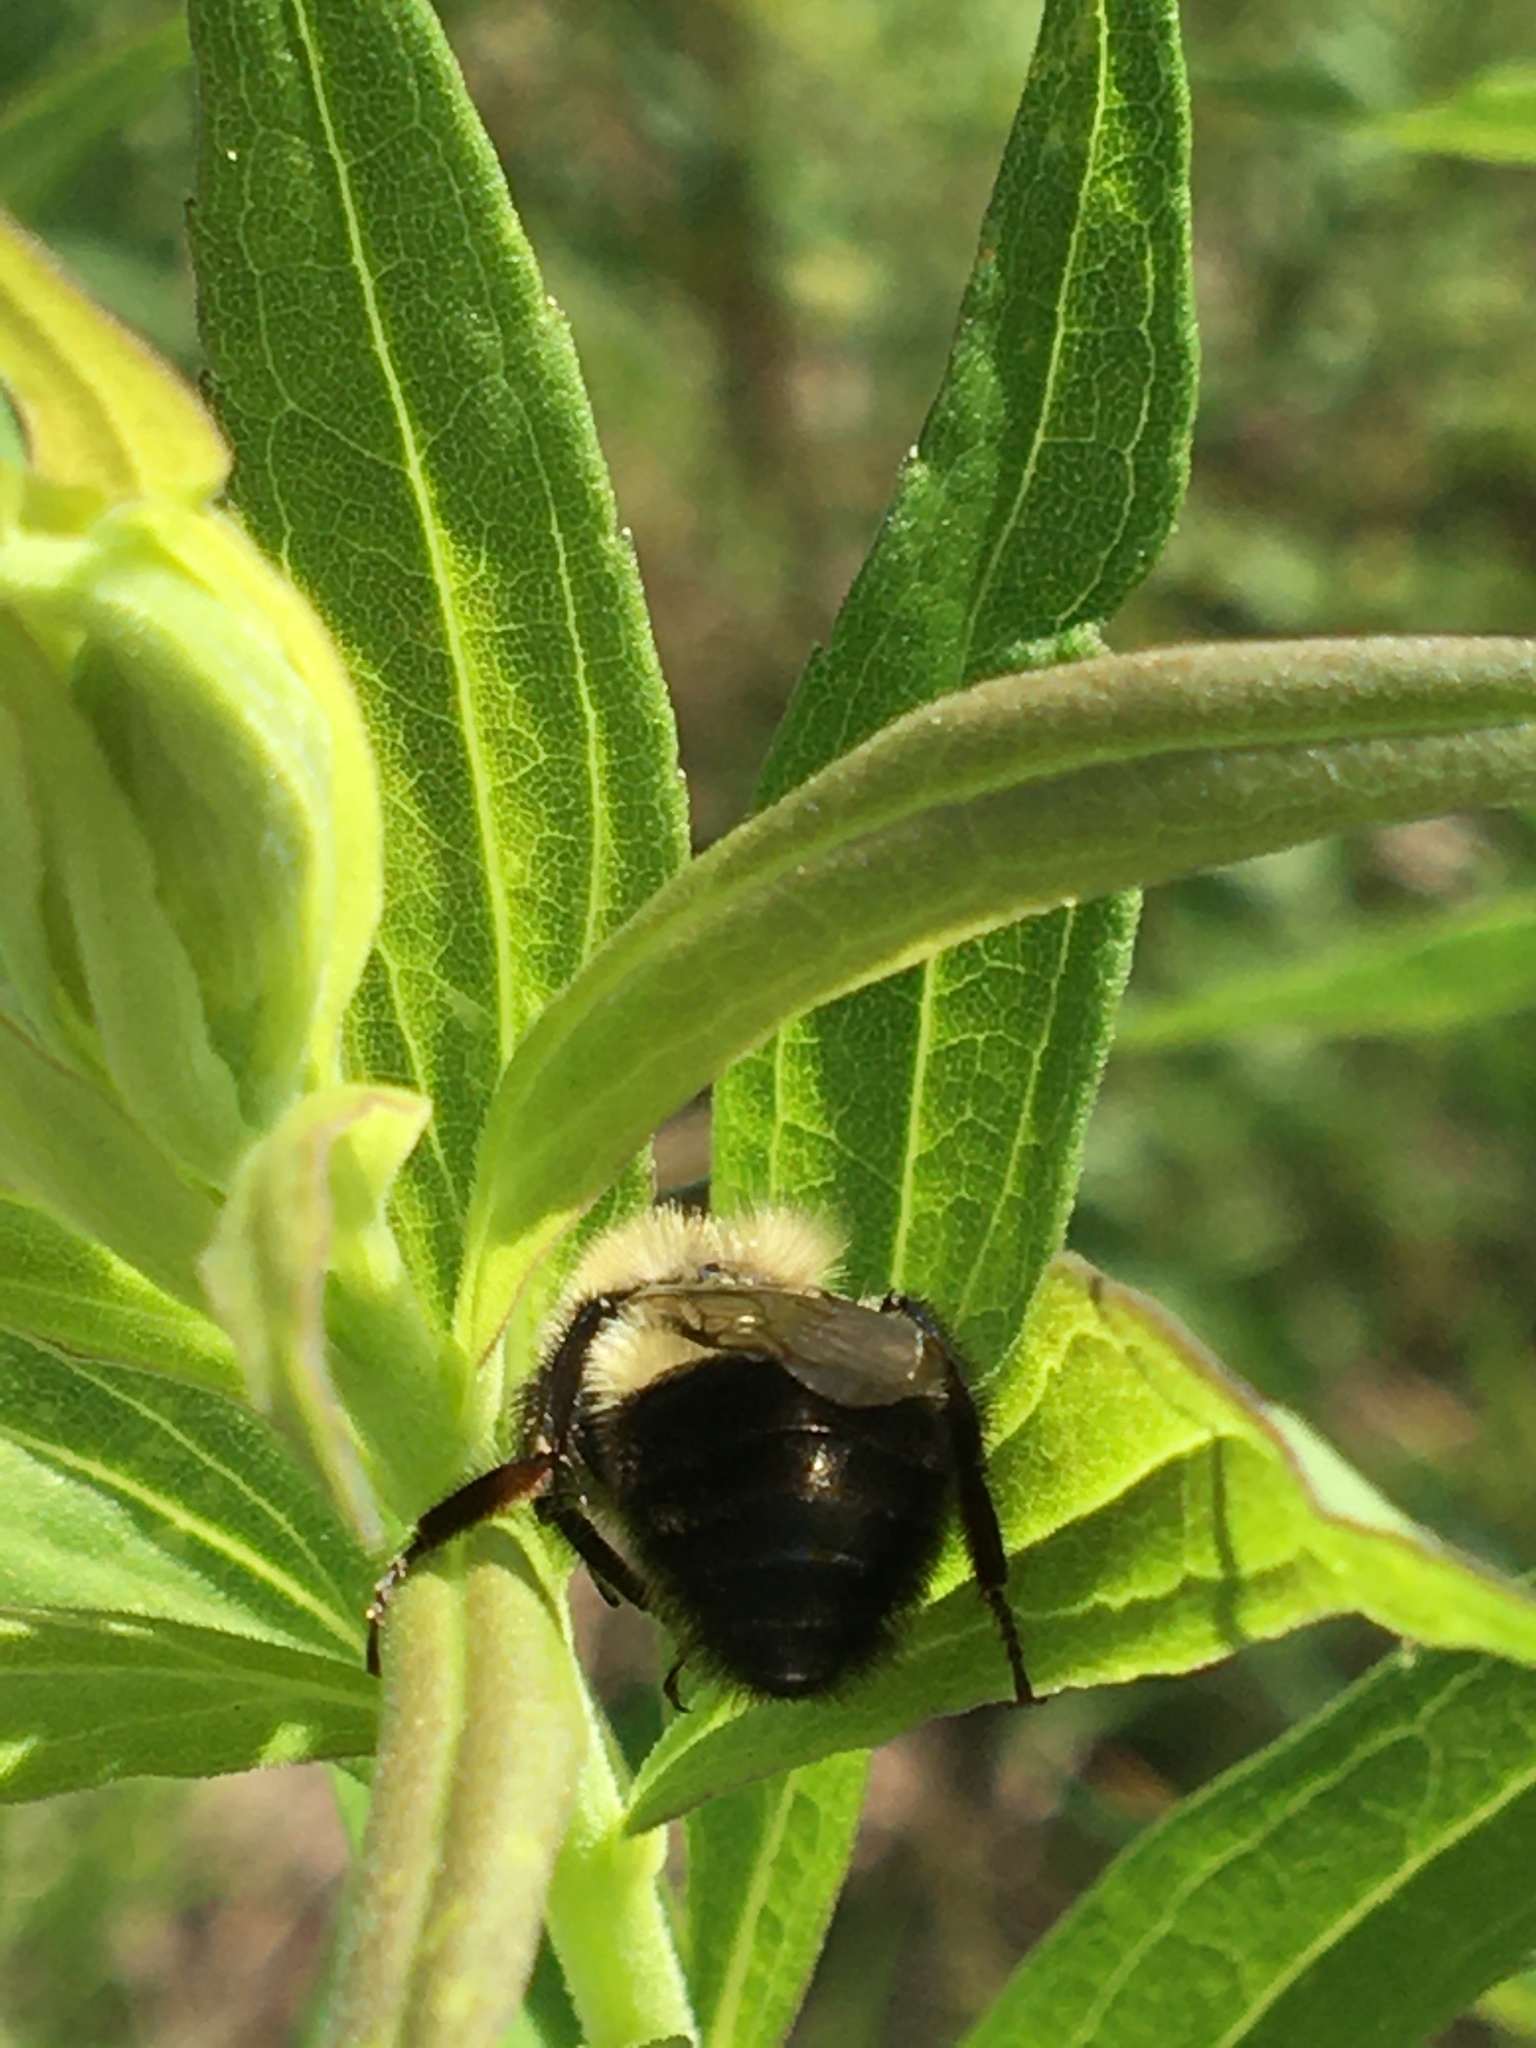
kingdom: Animalia
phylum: Arthropoda
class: Insecta
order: Hymenoptera
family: Apidae
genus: Bombus
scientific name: Bombus impatiens
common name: Common eastern bumble bee
